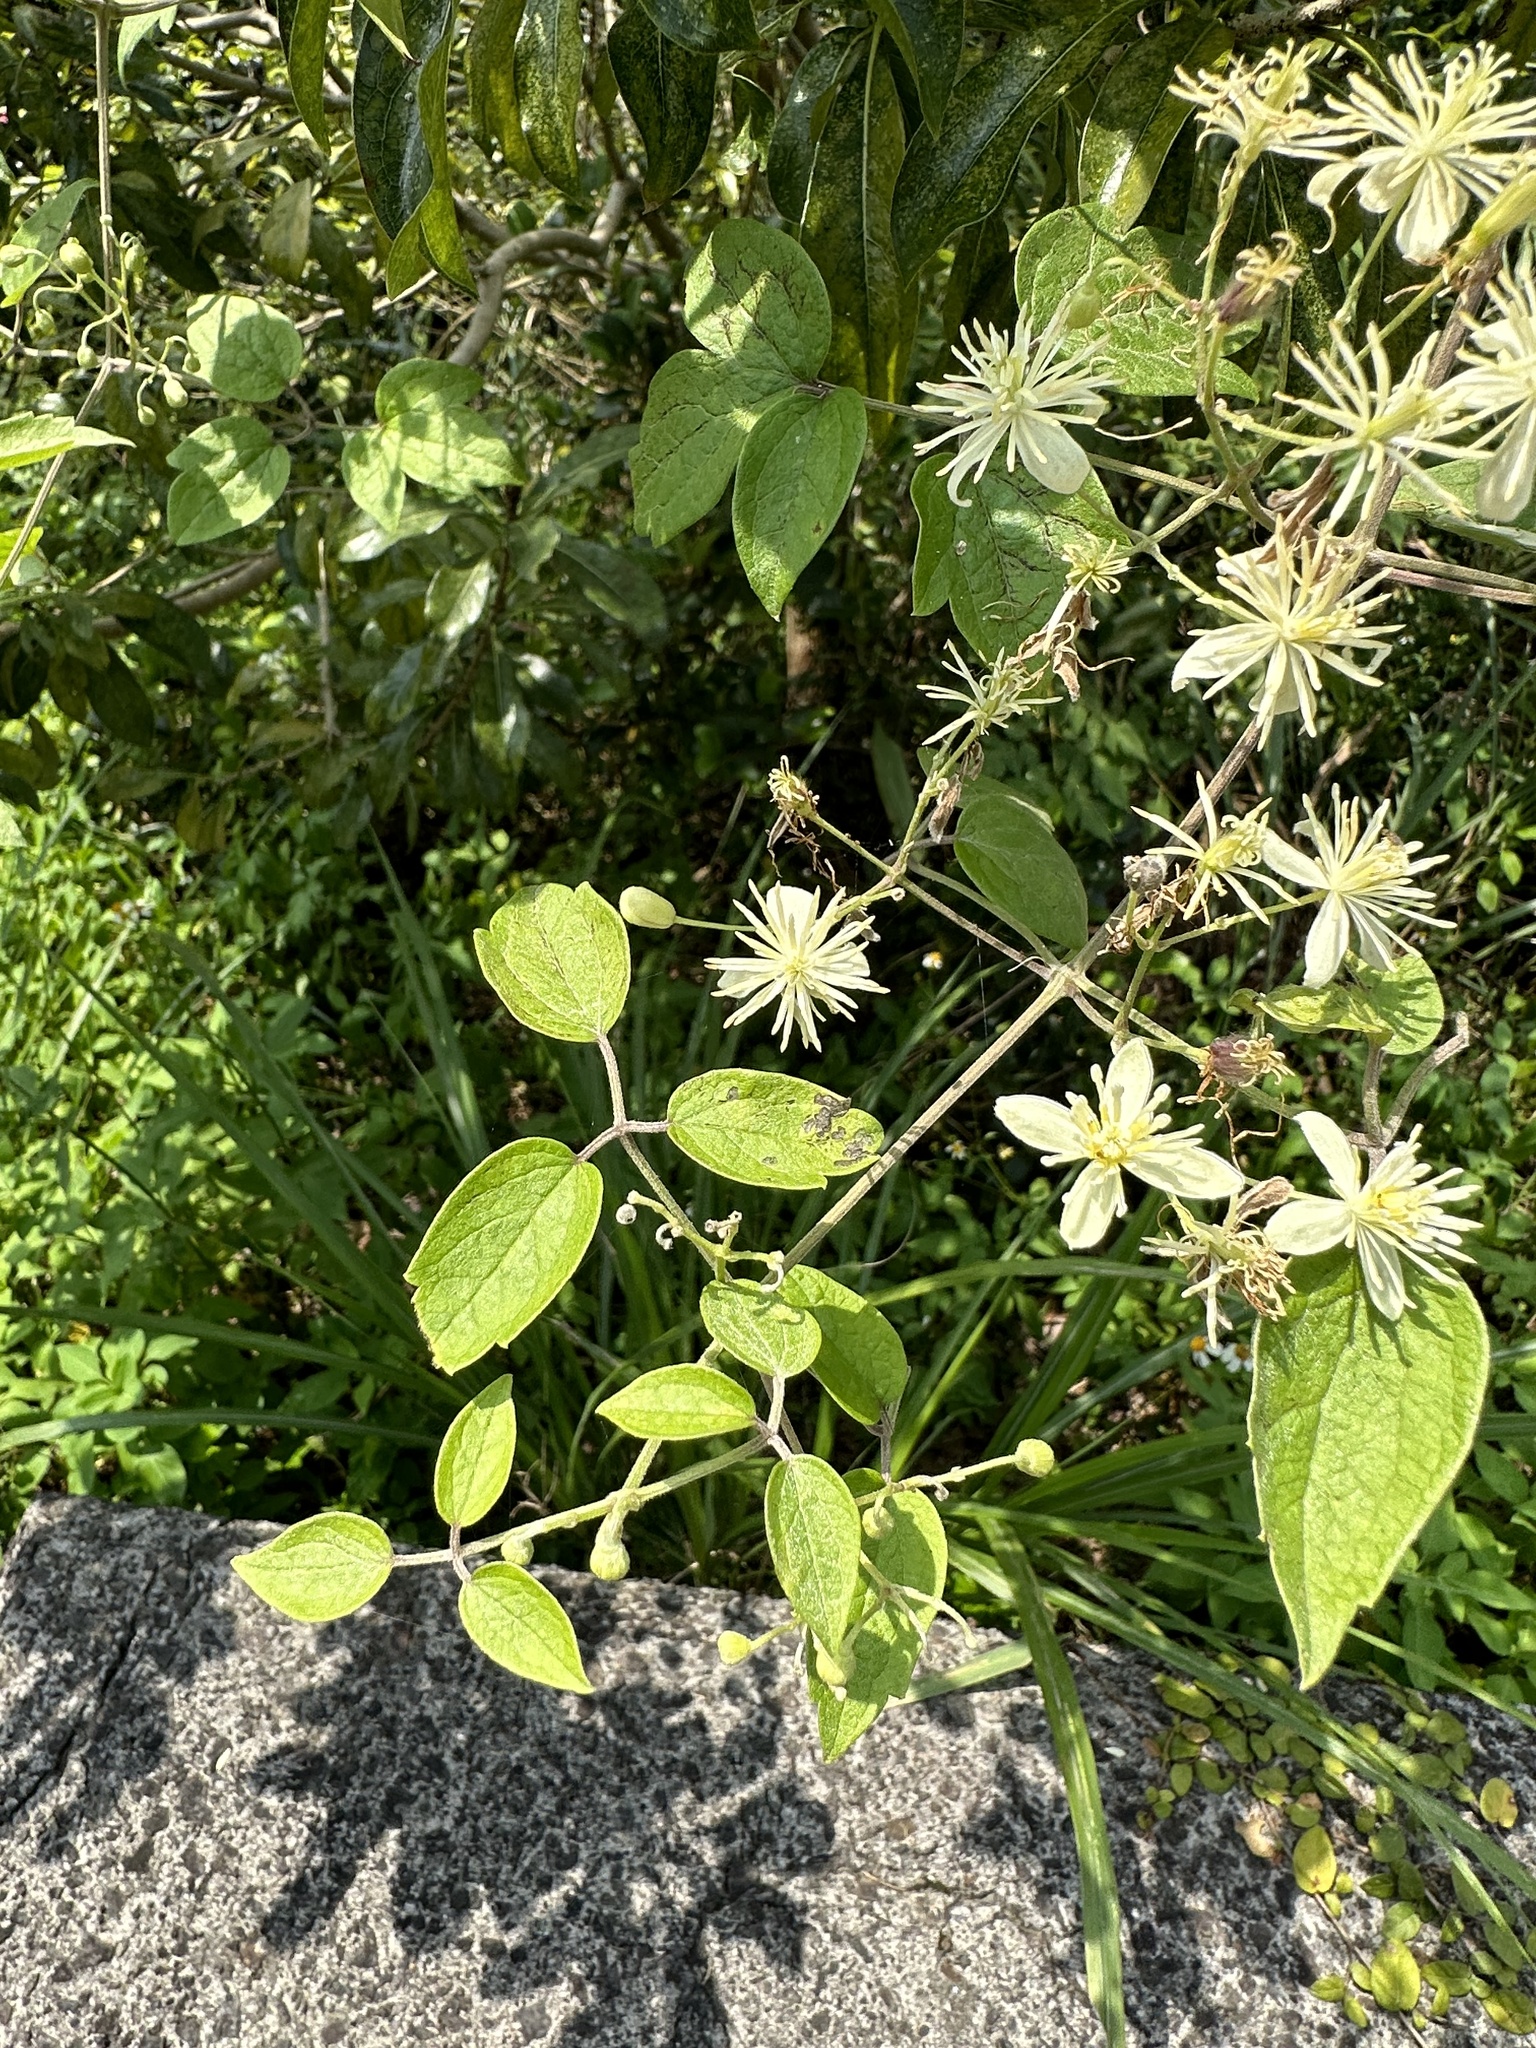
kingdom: Plantae
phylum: Tracheophyta
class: Magnoliopsida
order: Ranunculales
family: Ranunculaceae
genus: Clematis
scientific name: Clematis grata
